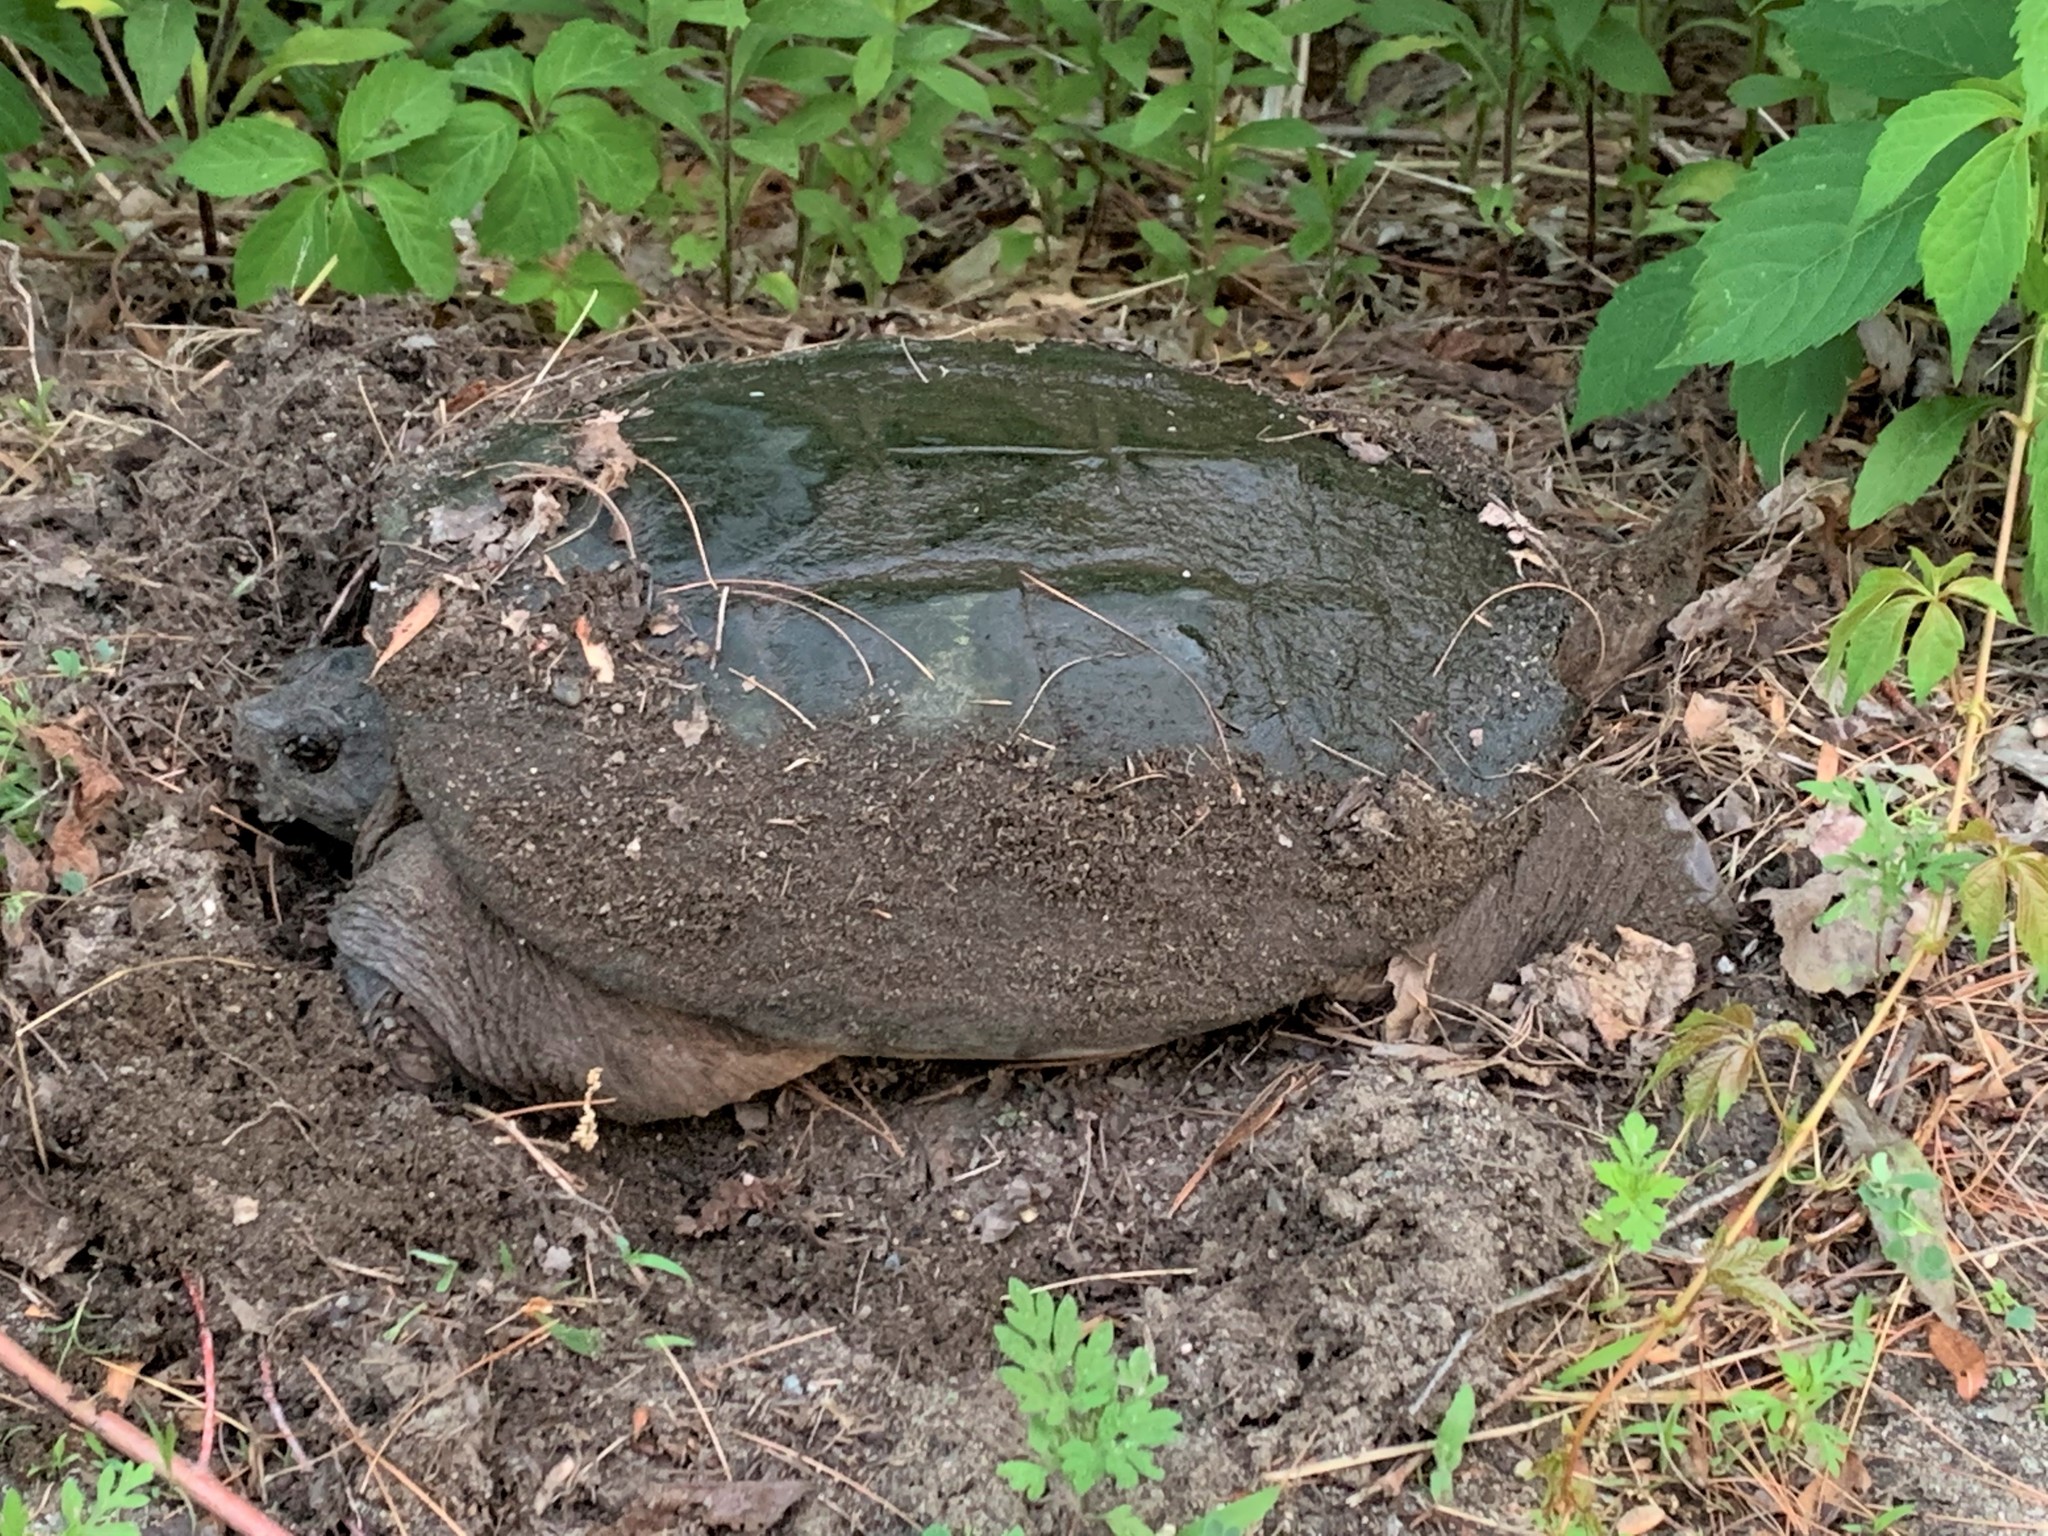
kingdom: Animalia
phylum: Chordata
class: Testudines
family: Chelydridae
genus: Chelydra
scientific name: Chelydra serpentina
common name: Common snapping turtle
